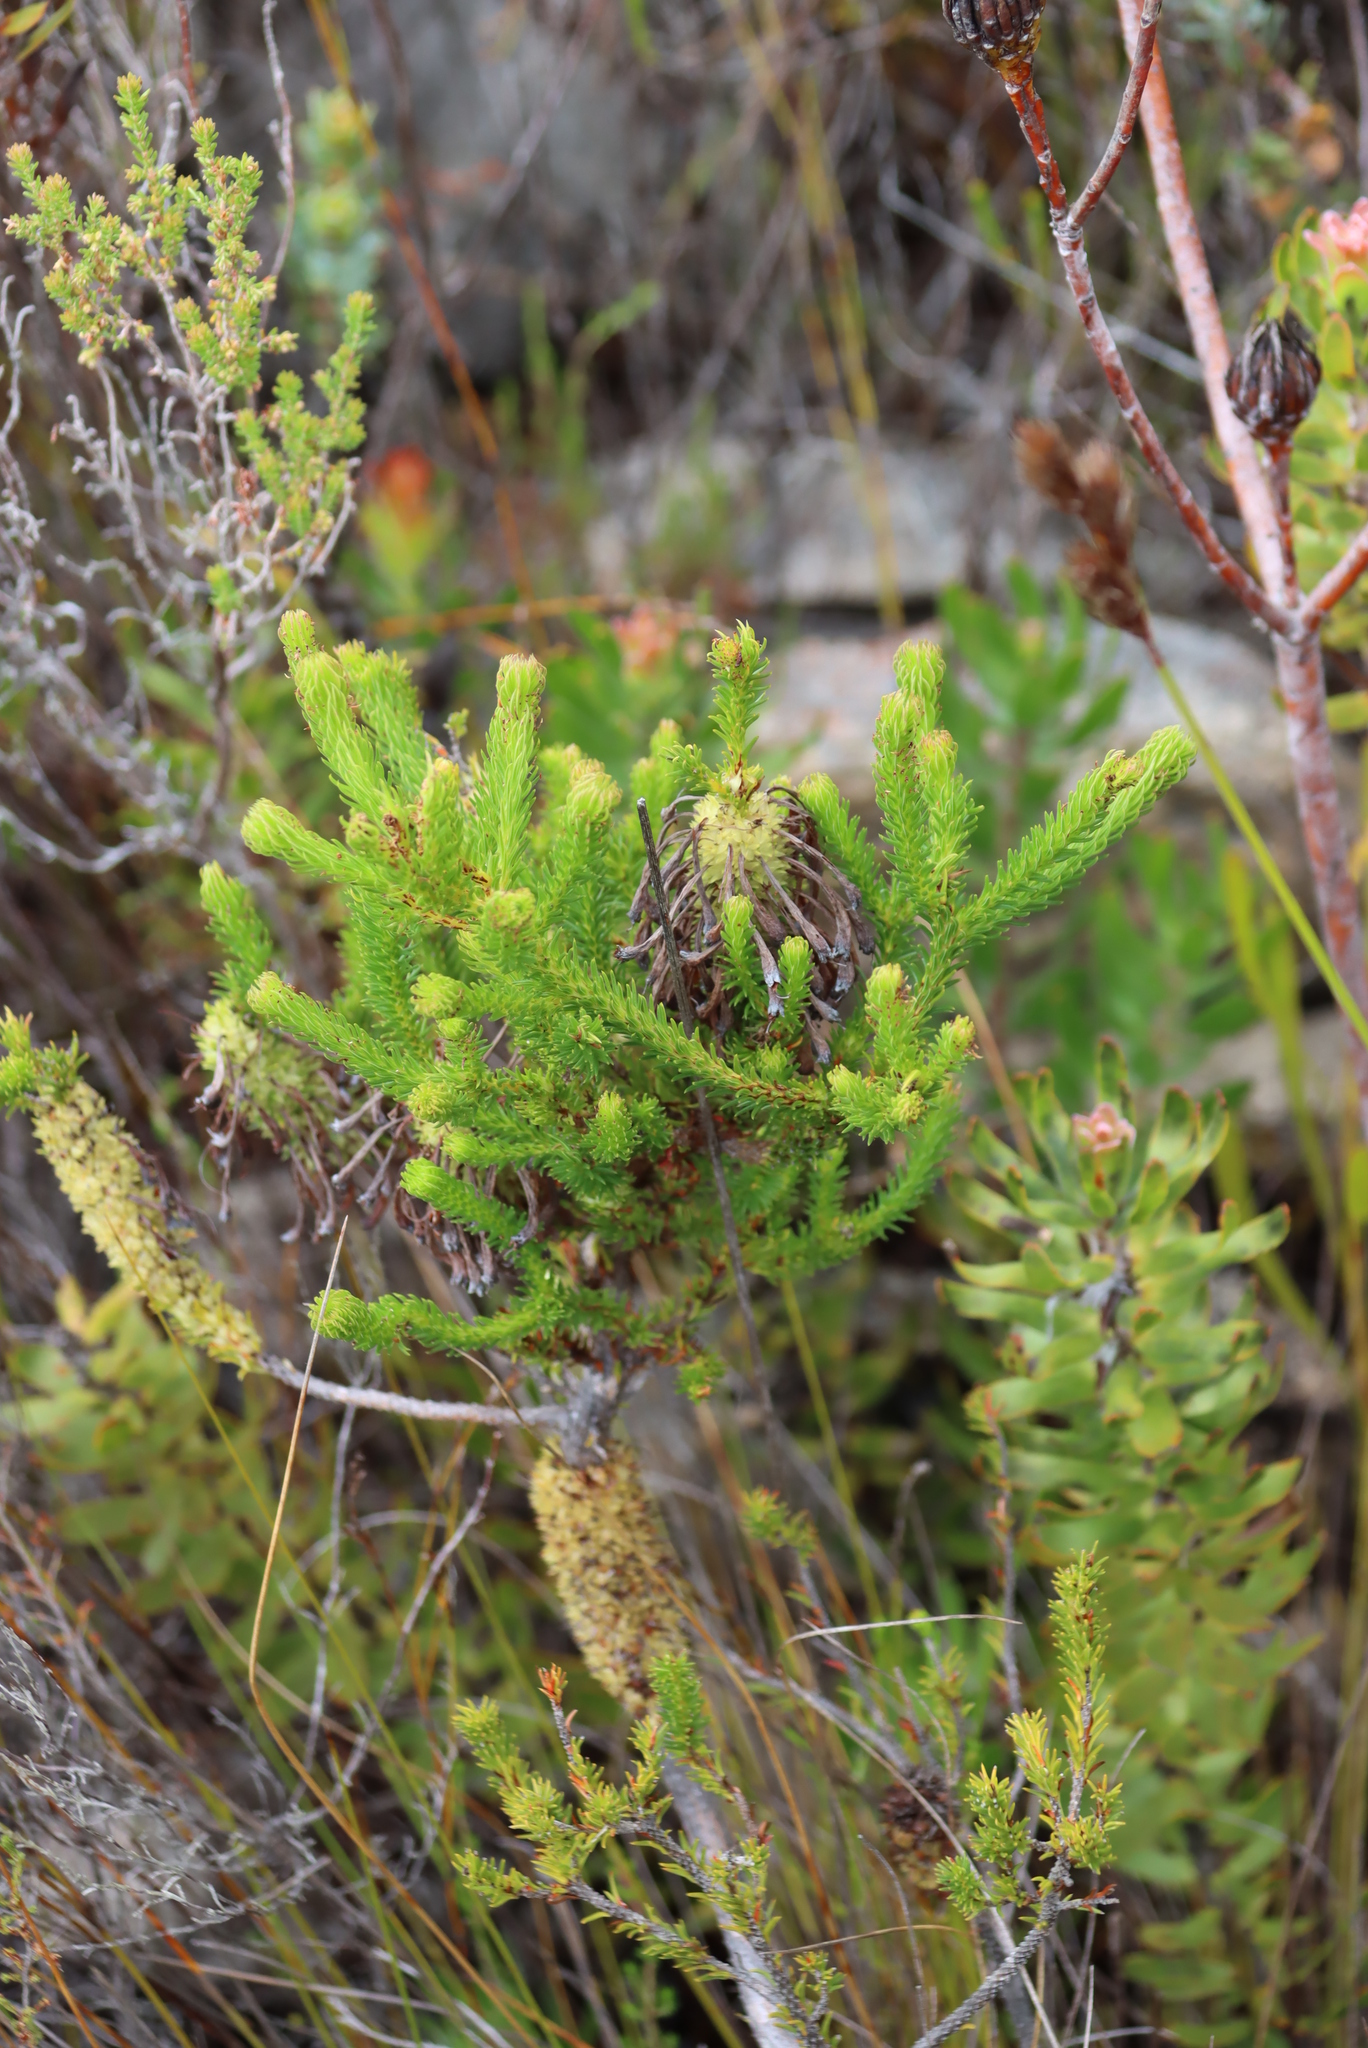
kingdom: Plantae
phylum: Tracheophyta
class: Magnoliopsida
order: Ericales
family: Ericaceae
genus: Erica
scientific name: Erica sessiliflora
